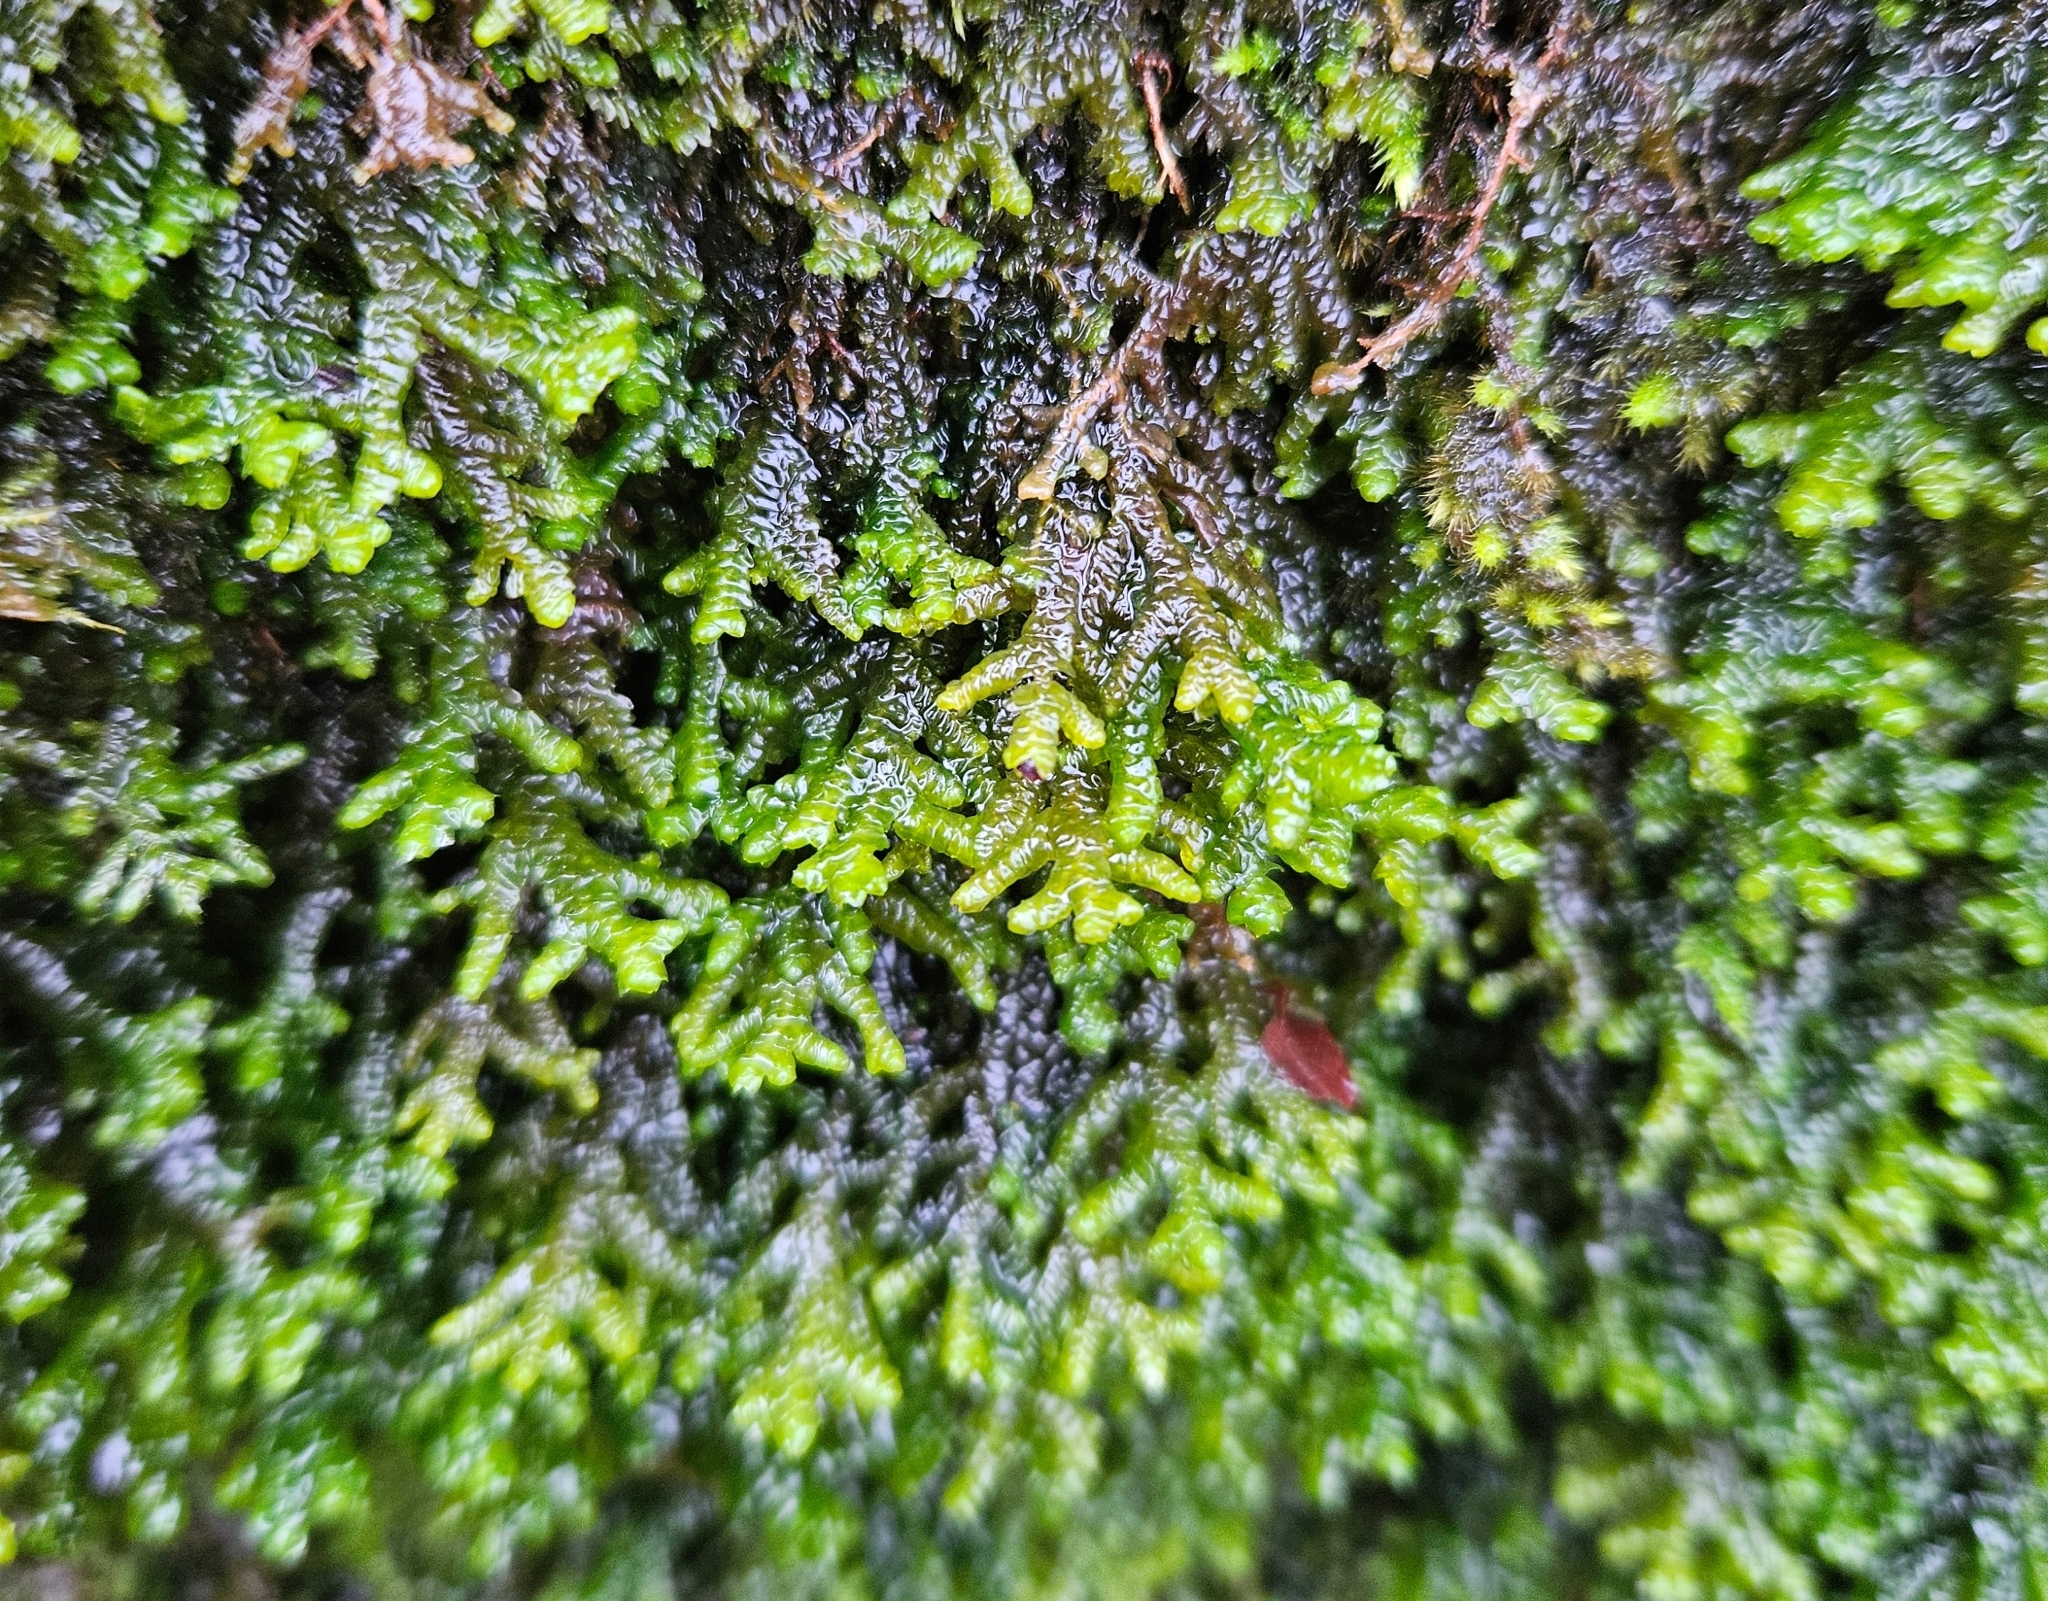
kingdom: Plantae
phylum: Marchantiophyta
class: Jungermanniopsida
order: Porellales
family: Porellaceae
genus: Porella
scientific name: Porella platyphylla
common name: Wall scalewort
